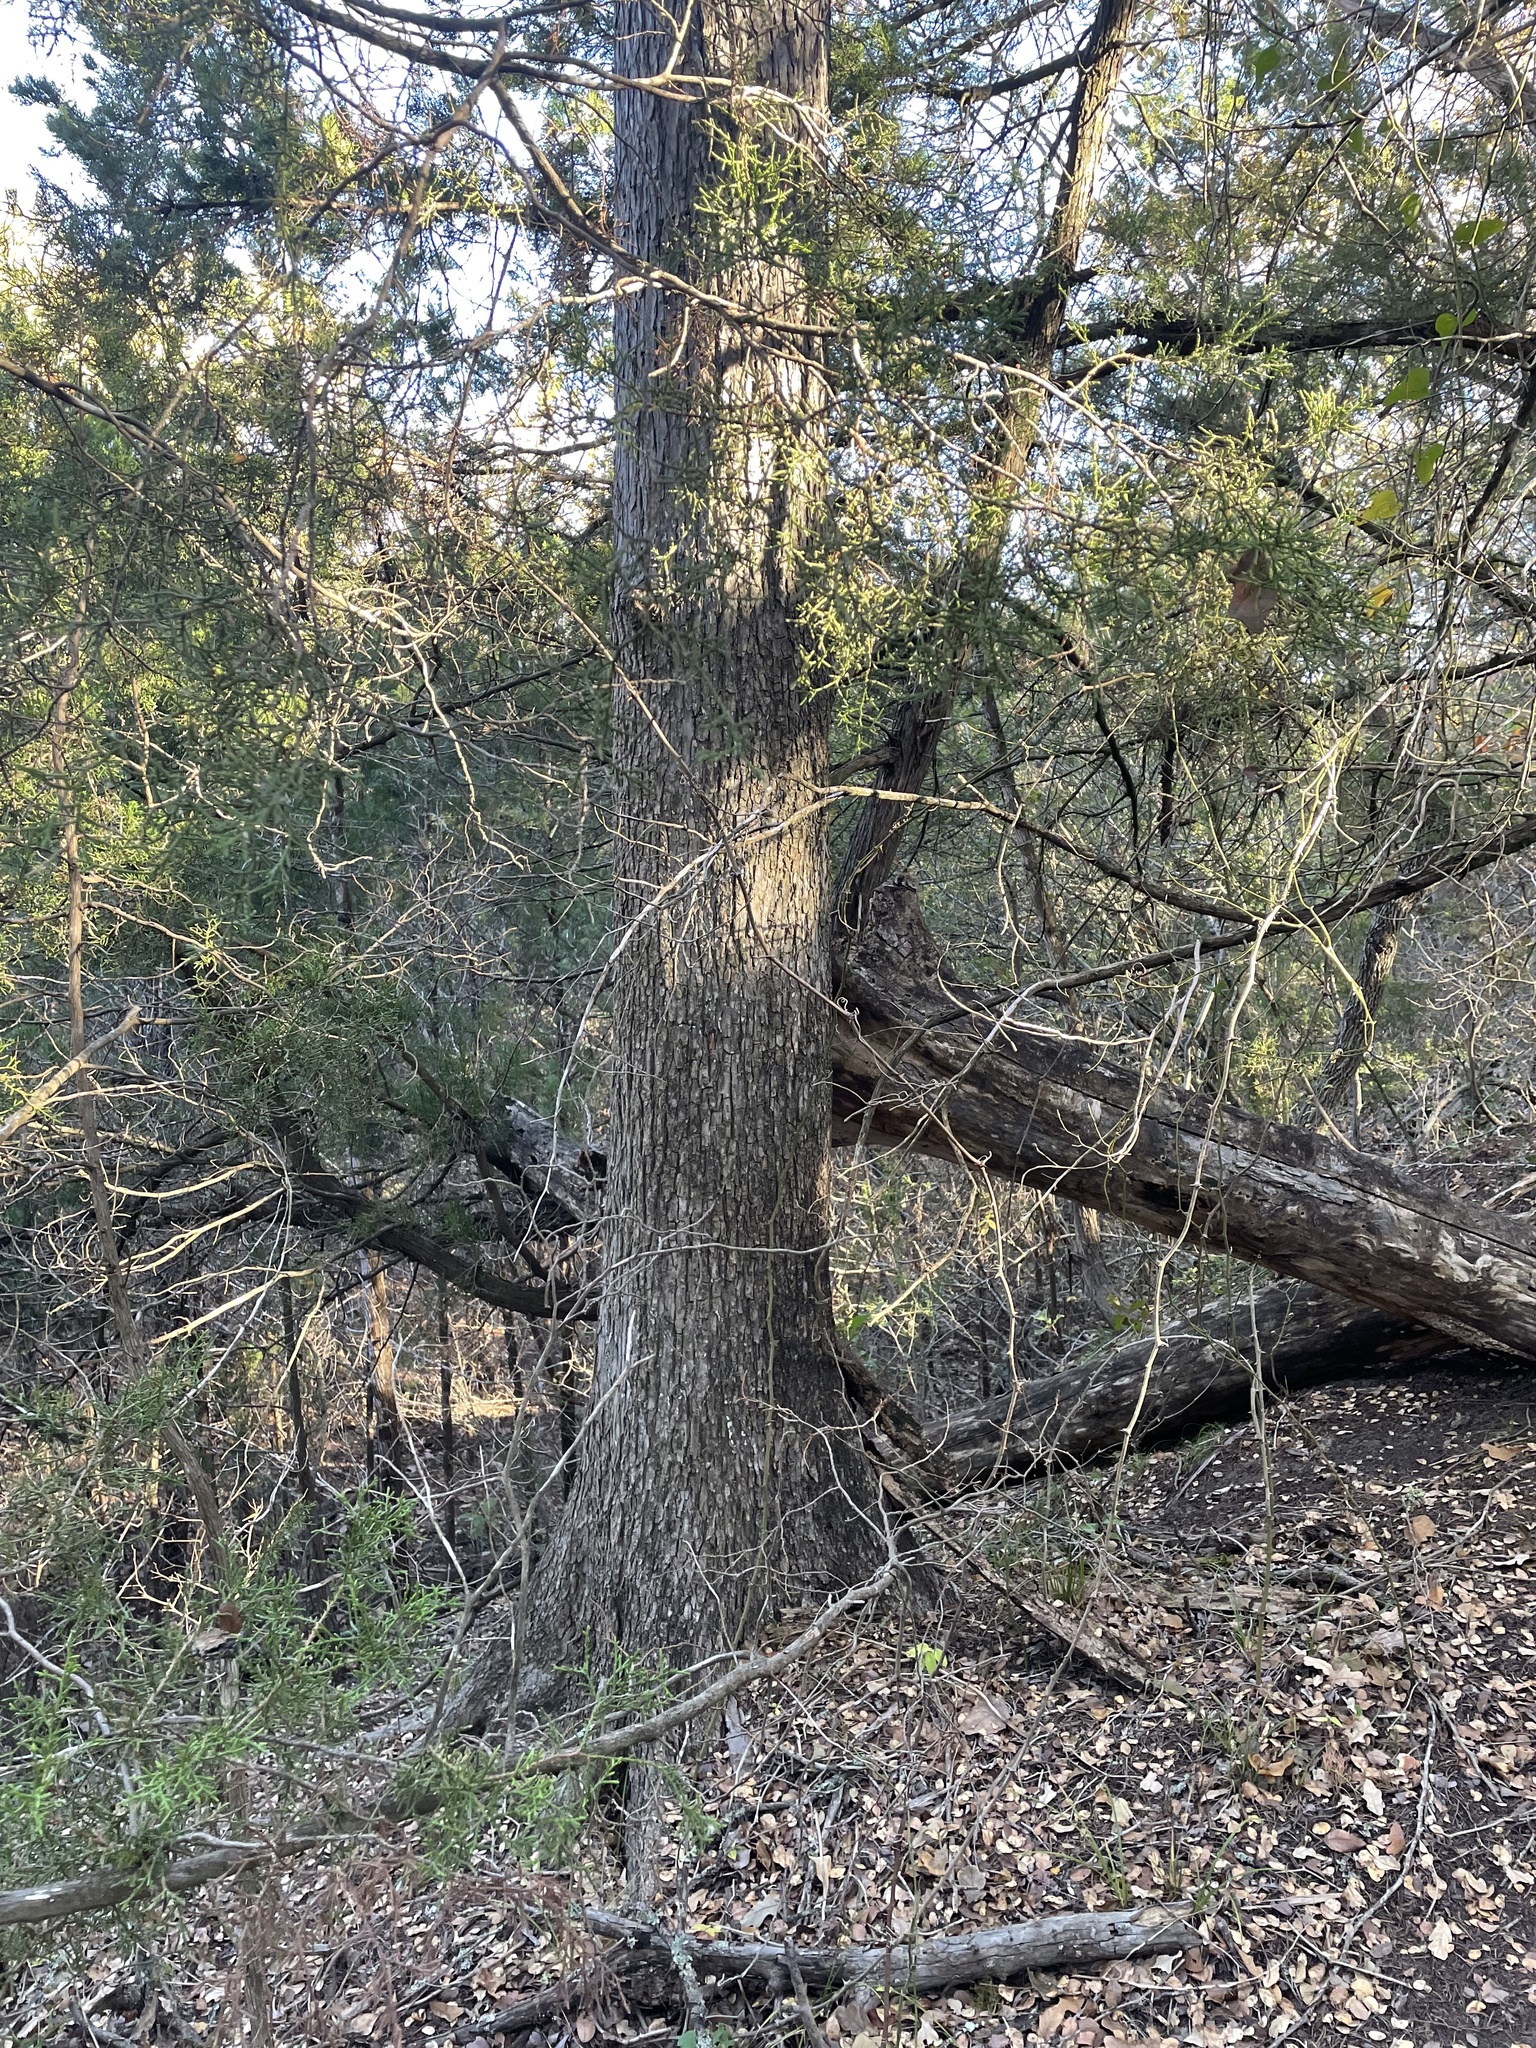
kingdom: Plantae
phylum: Tracheophyta
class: Magnoliopsida
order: Rosales
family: Ulmaceae
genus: Ulmus
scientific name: Ulmus crassifolia
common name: Basket elm
